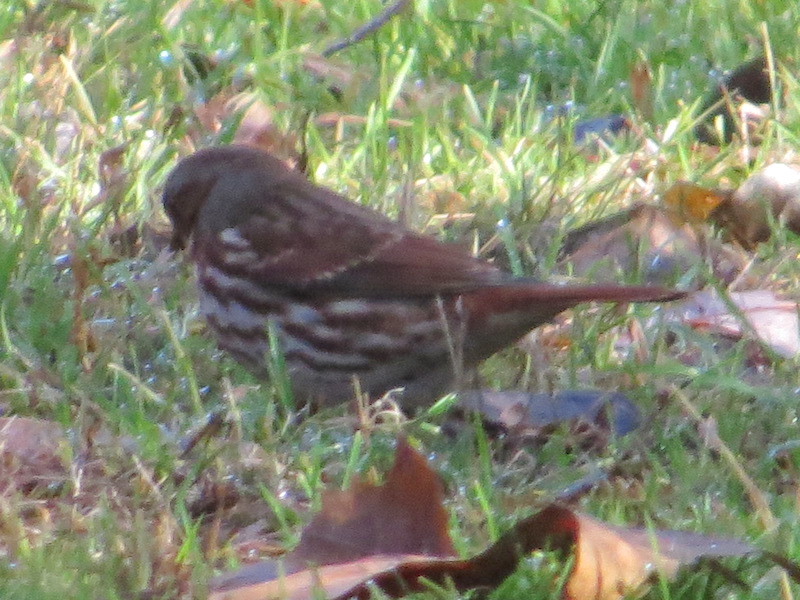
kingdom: Animalia
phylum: Chordata
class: Aves
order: Passeriformes
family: Passerellidae
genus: Passerella
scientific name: Passerella iliaca
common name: Fox sparrow
